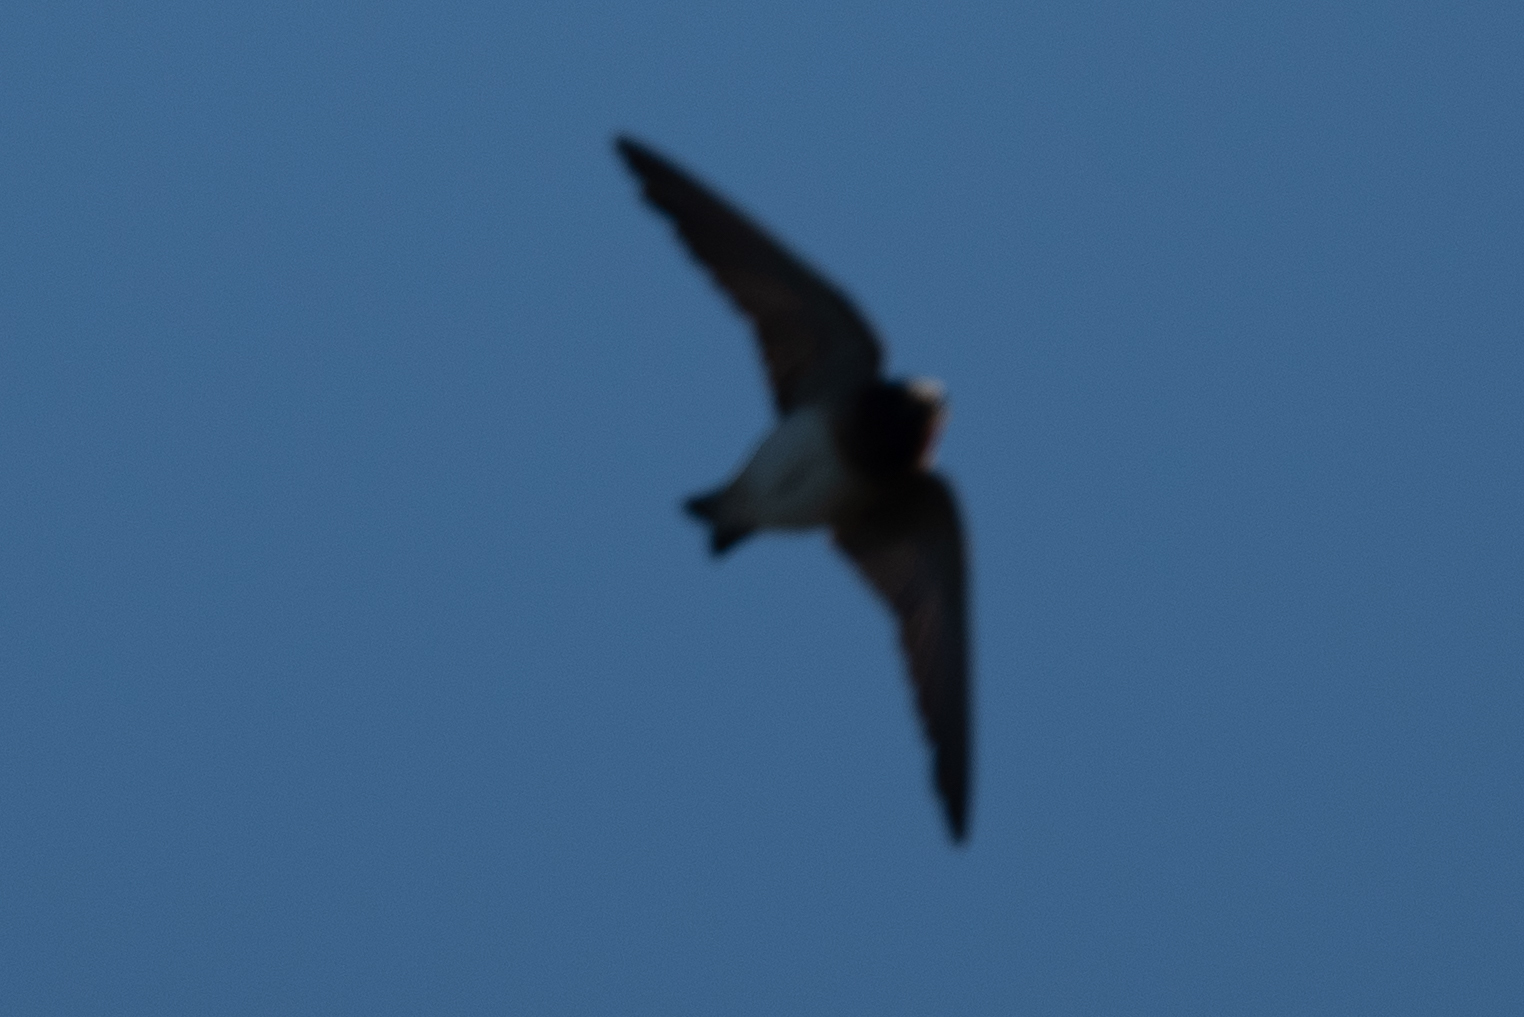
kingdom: Animalia
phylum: Chordata
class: Aves
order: Passeriformes
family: Hirundinidae
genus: Petrochelidon
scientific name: Petrochelidon pyrrhonota
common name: American cliff swallow
